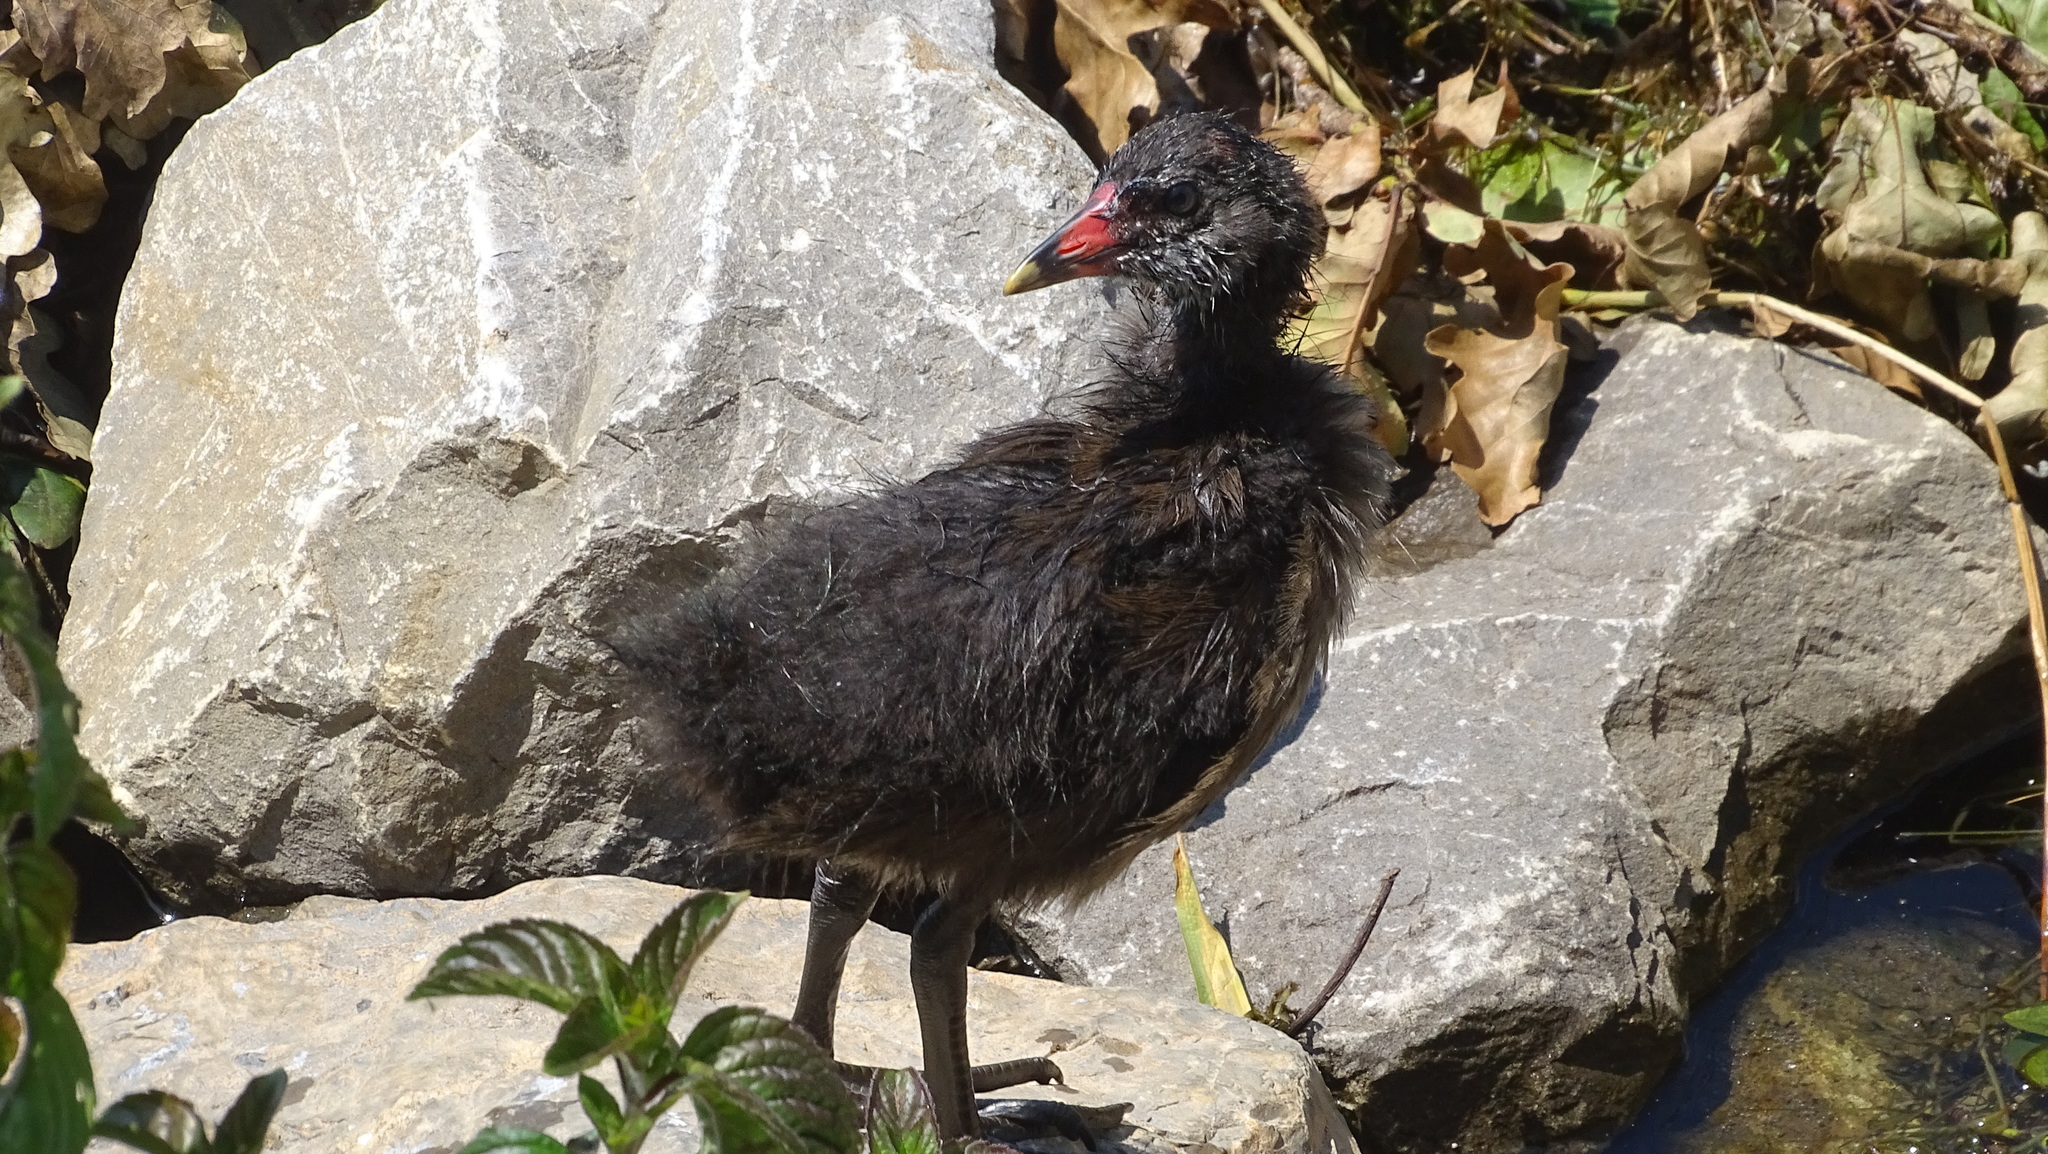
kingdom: Animalia
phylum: Chordata
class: Aves
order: Gruiformes
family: Rallidae
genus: Gallinula
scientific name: Gallinula chloropus
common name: Common moorhen
